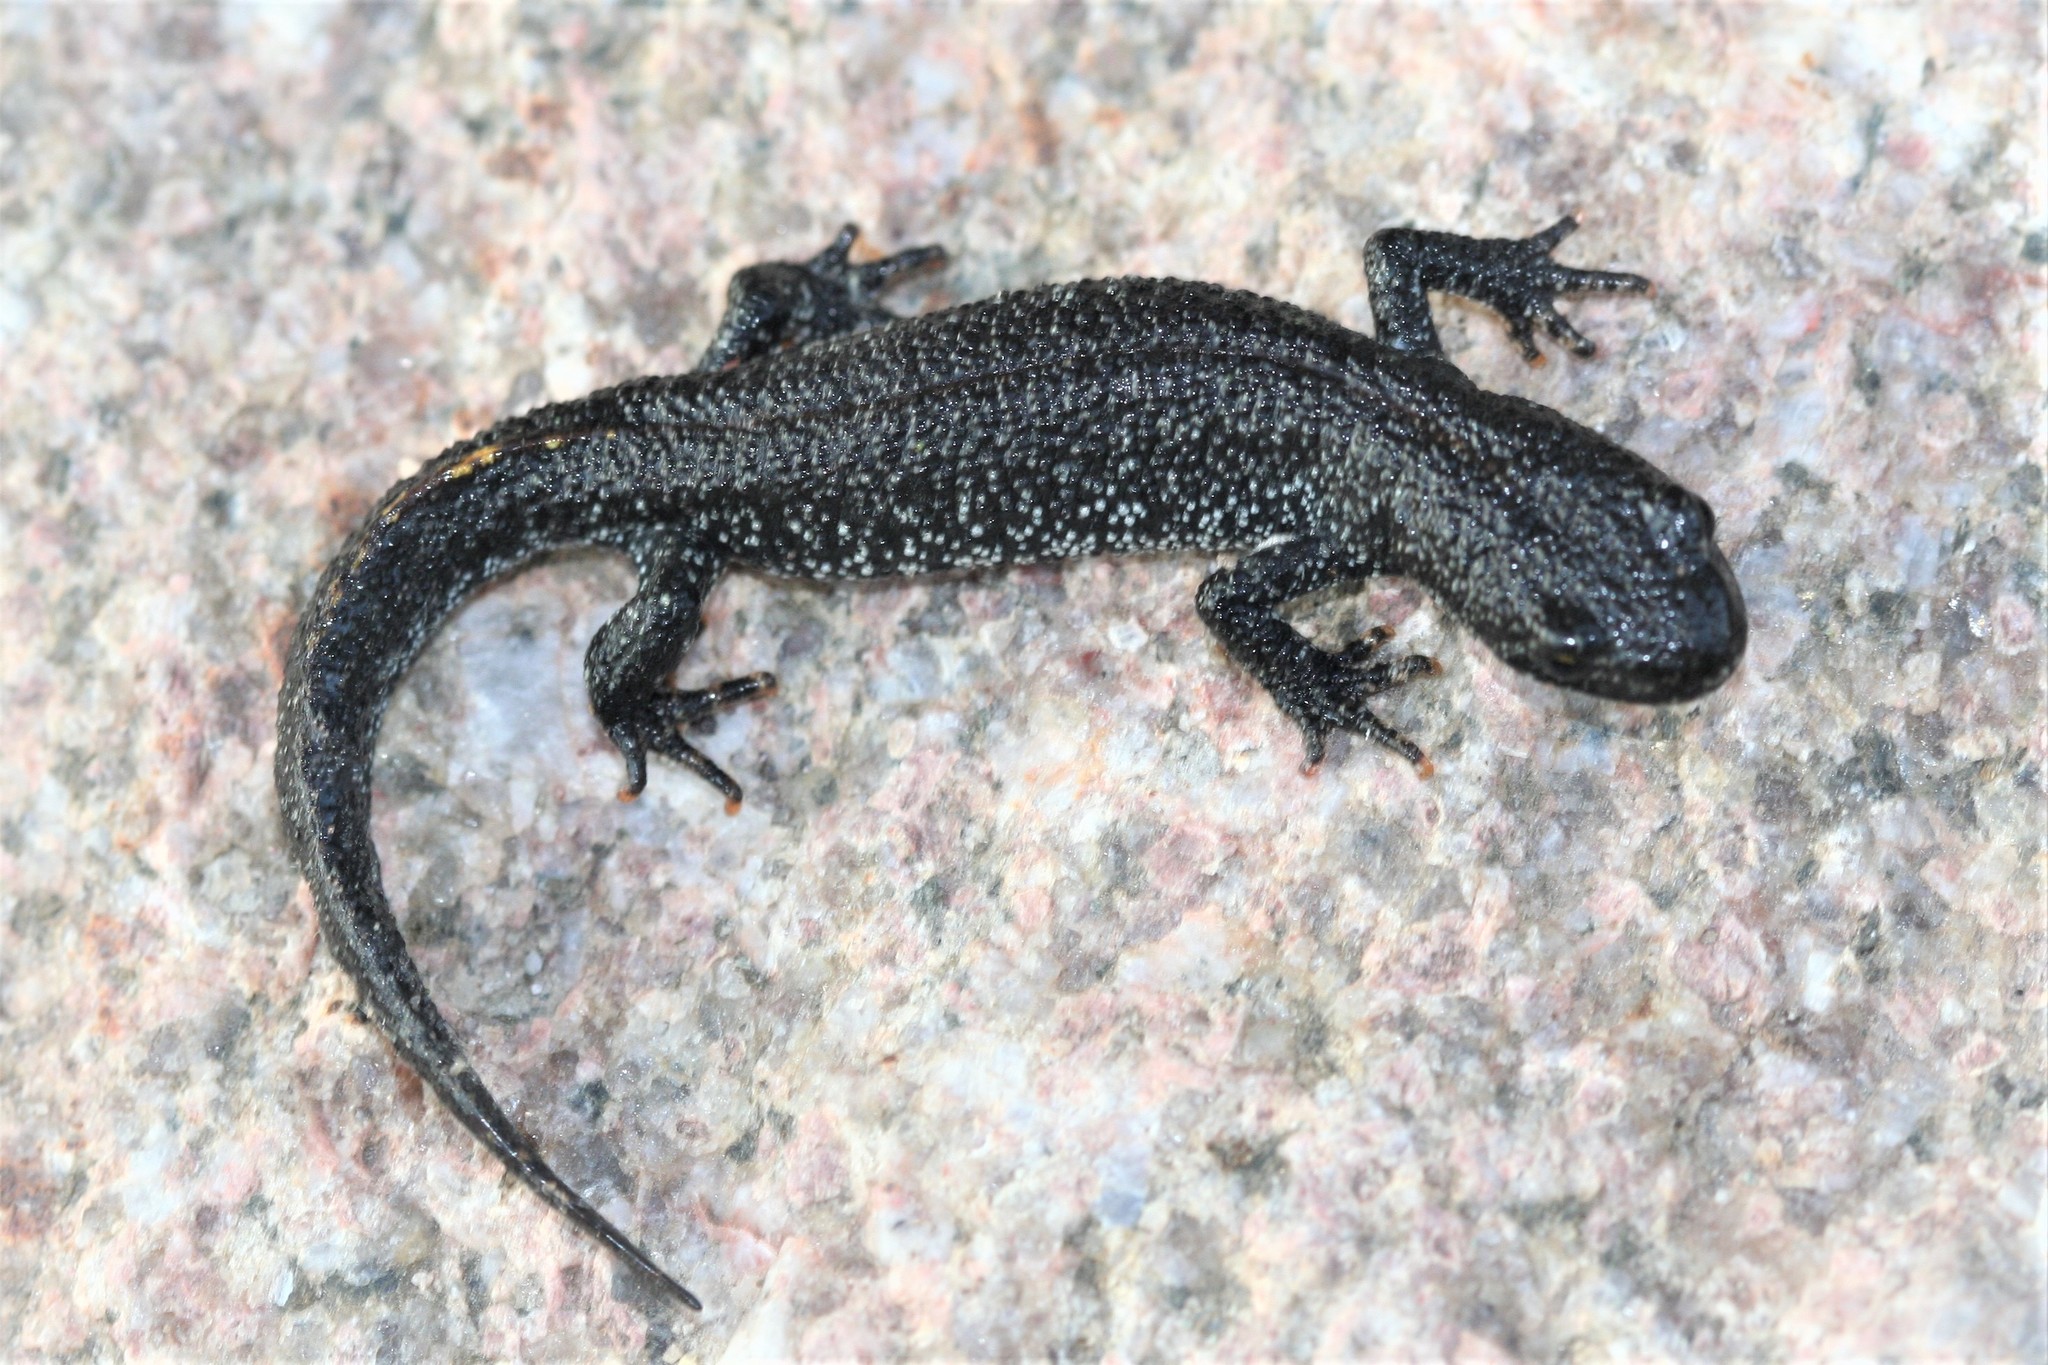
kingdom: Animalia
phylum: Chordata
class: Amphibia
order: Caudata
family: Salamandridae
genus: Triturus
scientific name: Triturus cristatus
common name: Crested newt
